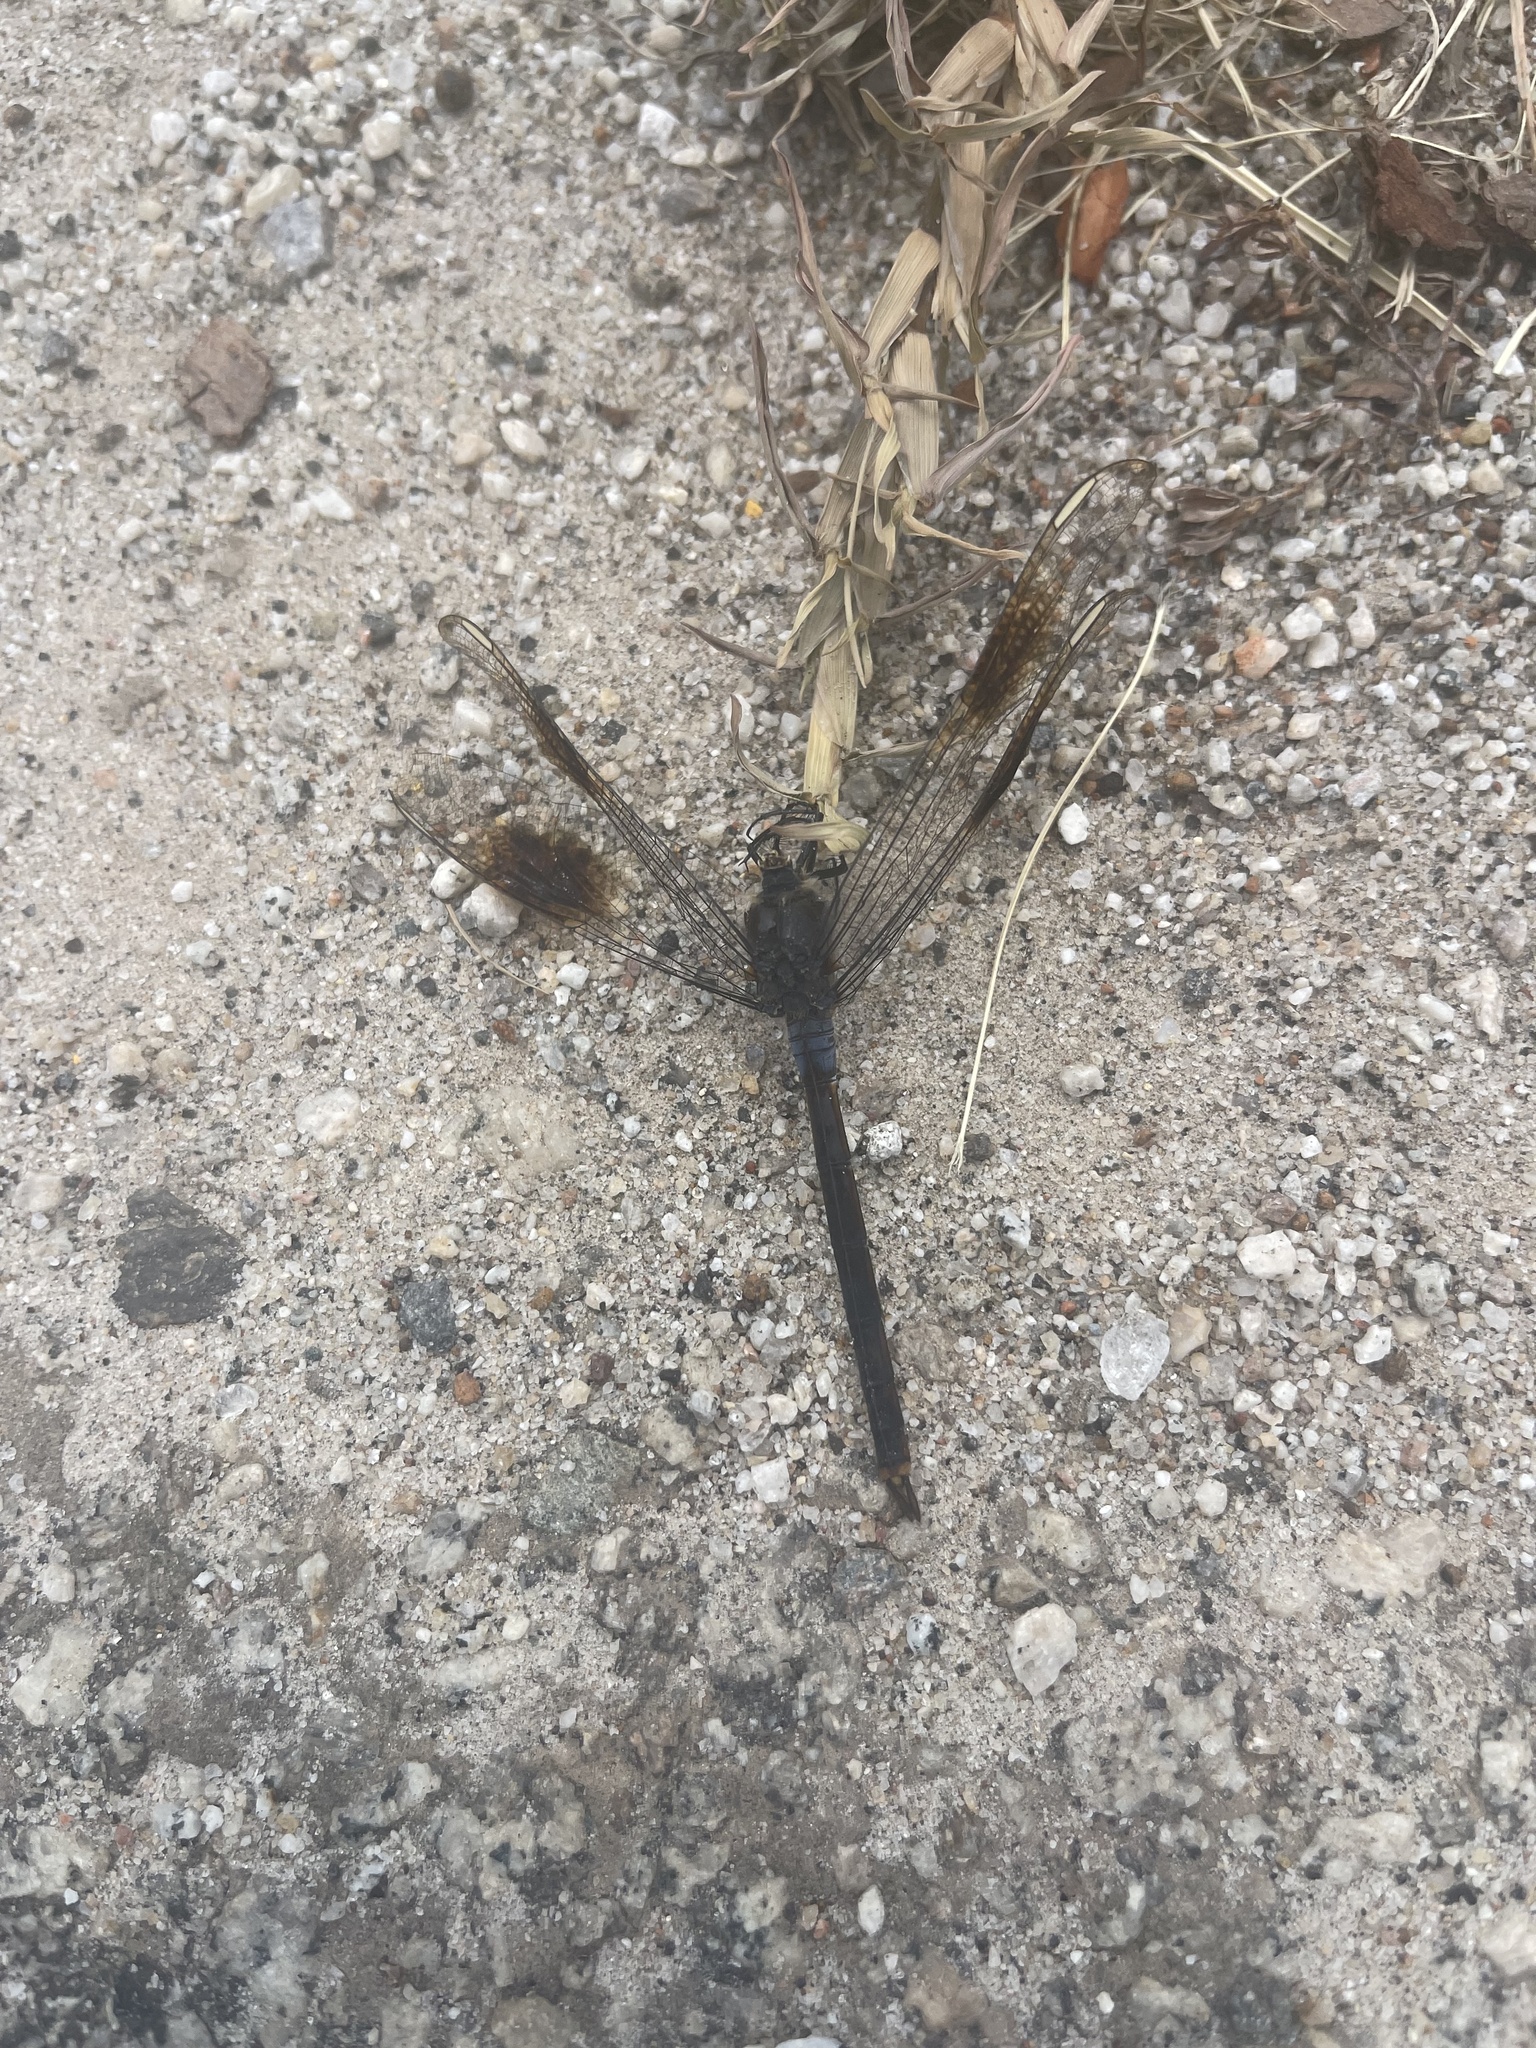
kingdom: Animalia
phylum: Arthropoda
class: Insecta
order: Odonata
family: Libellulidae
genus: Brachymesia
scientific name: Brachymesia gravida
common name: Four-spotted pennant
